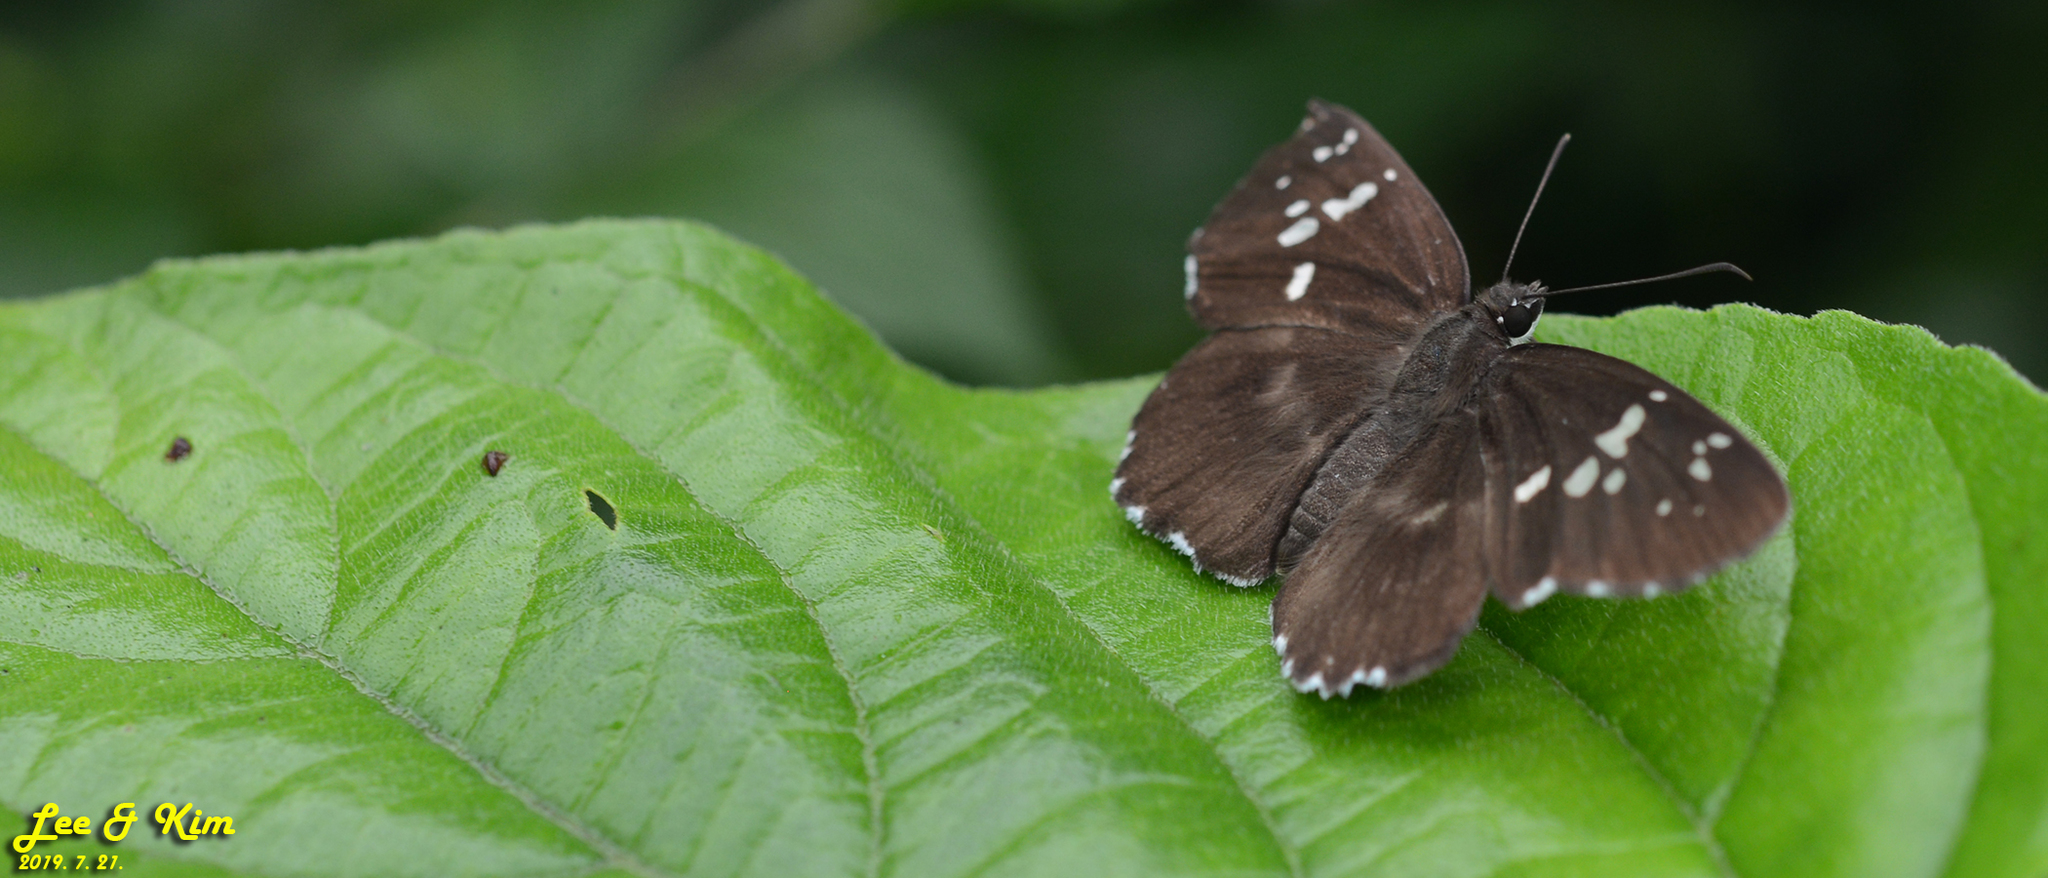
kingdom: Animalia
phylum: Arthropoda
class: Insecta
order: Lepidoptera
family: Hesperiidae
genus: Daimio
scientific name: Daimio tethys
